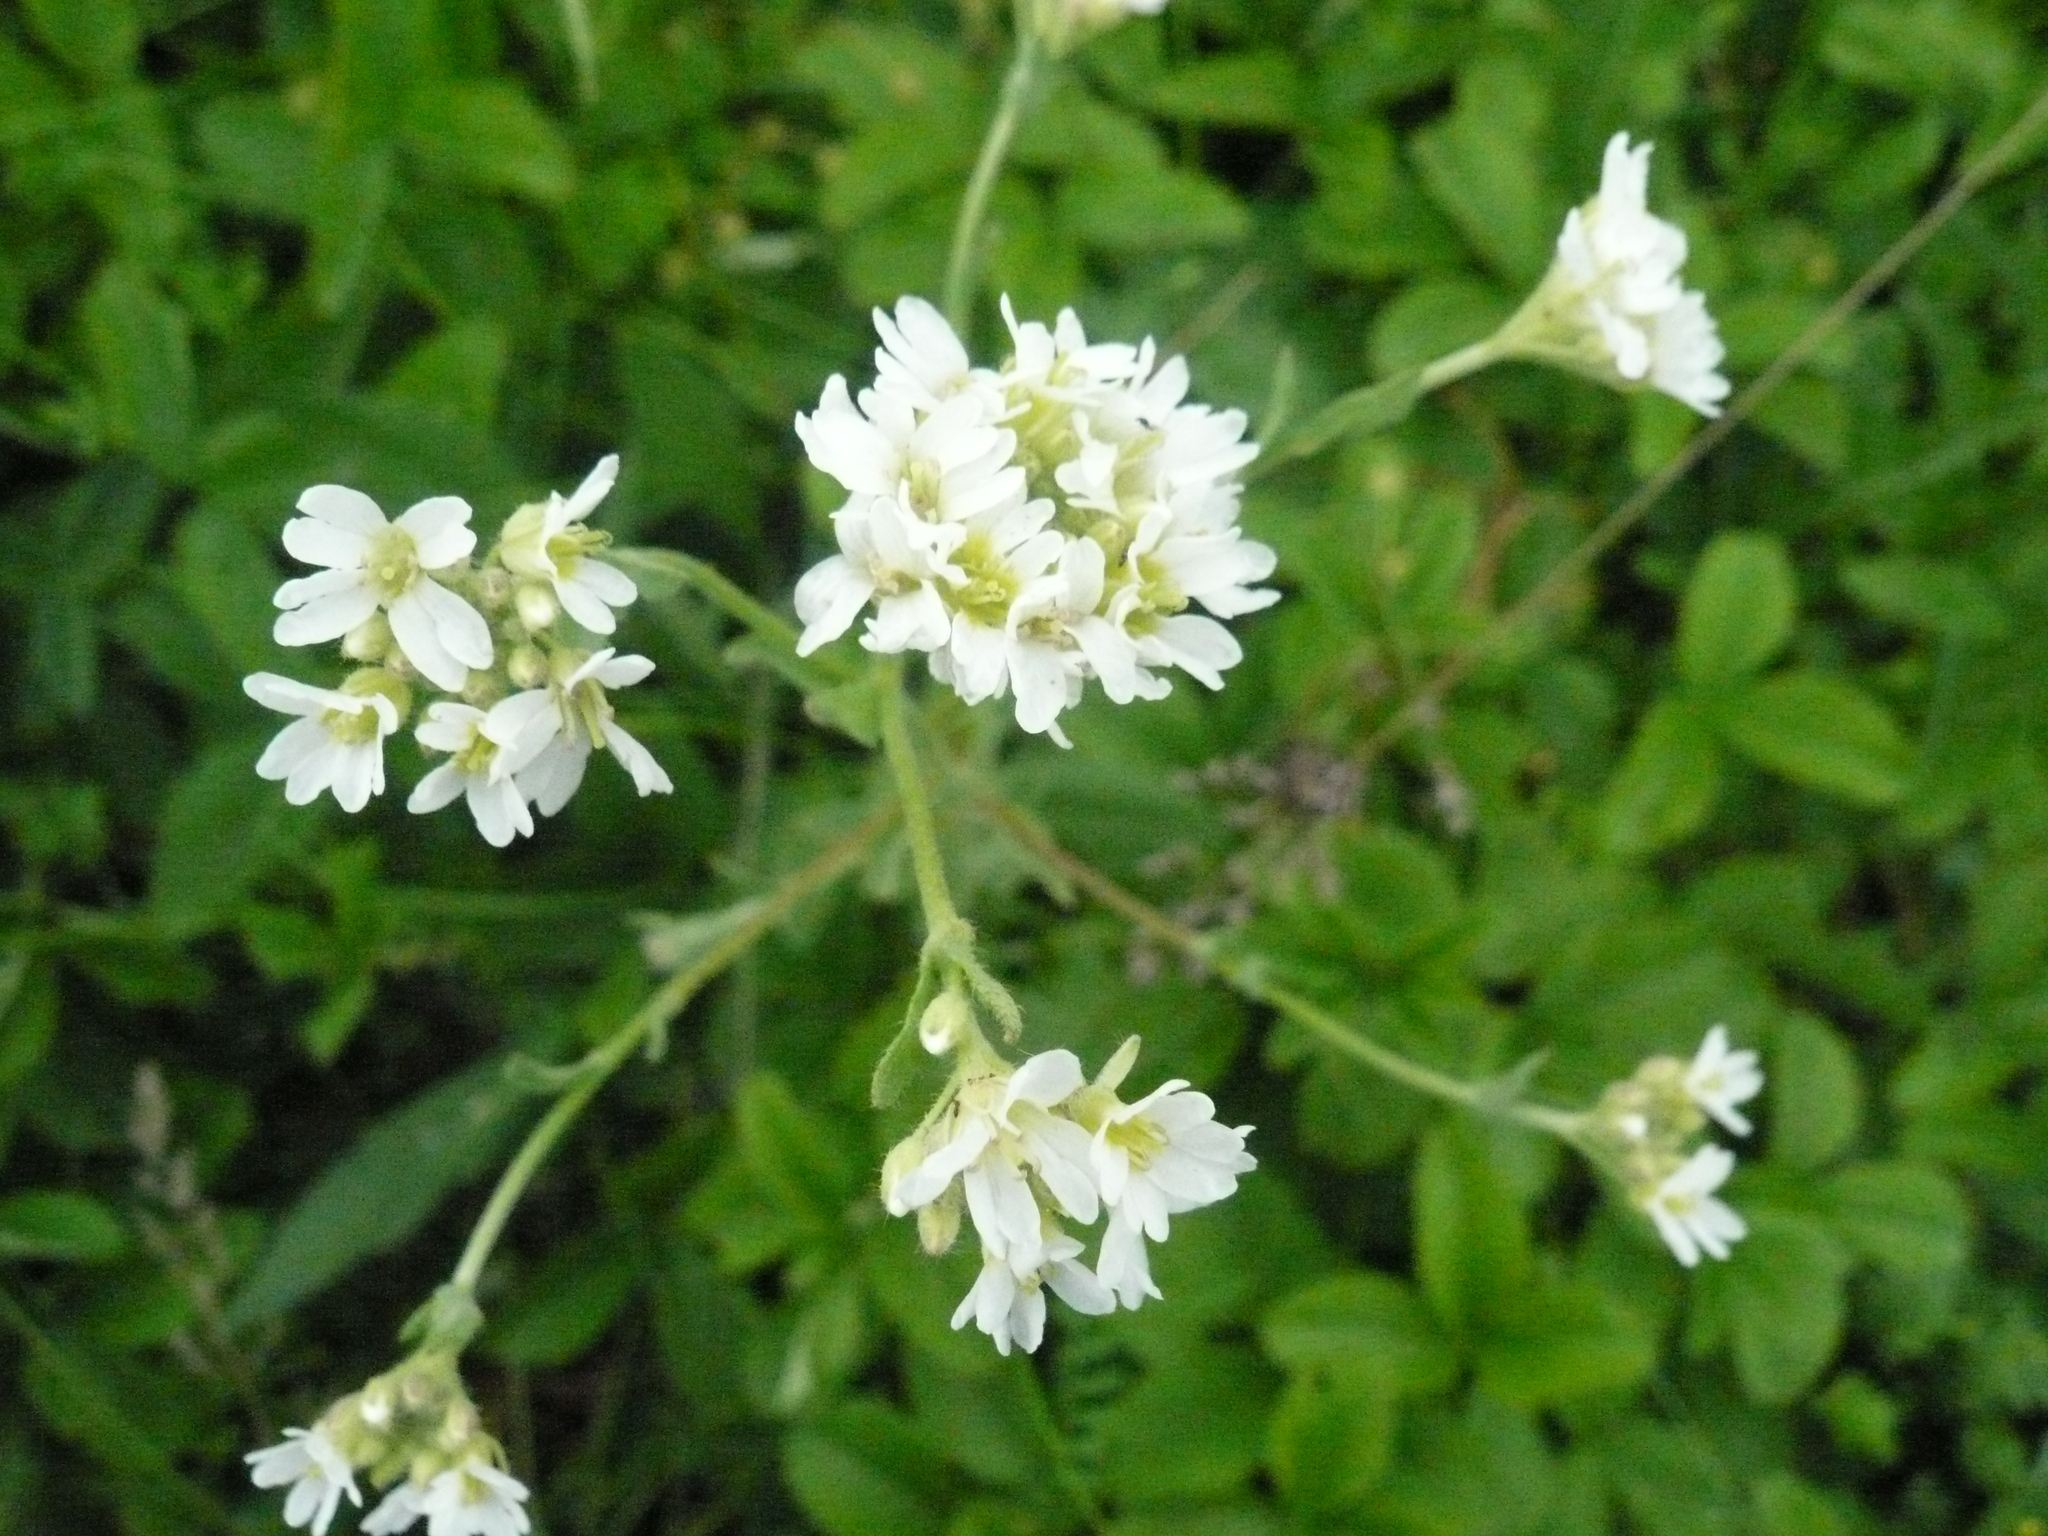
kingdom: Plantae
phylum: Tracheophyta
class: Magnoliopsida
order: Brassicales
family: Brassicaceae
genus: Berteroa
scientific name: Berteroa incana
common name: Hoary alison
